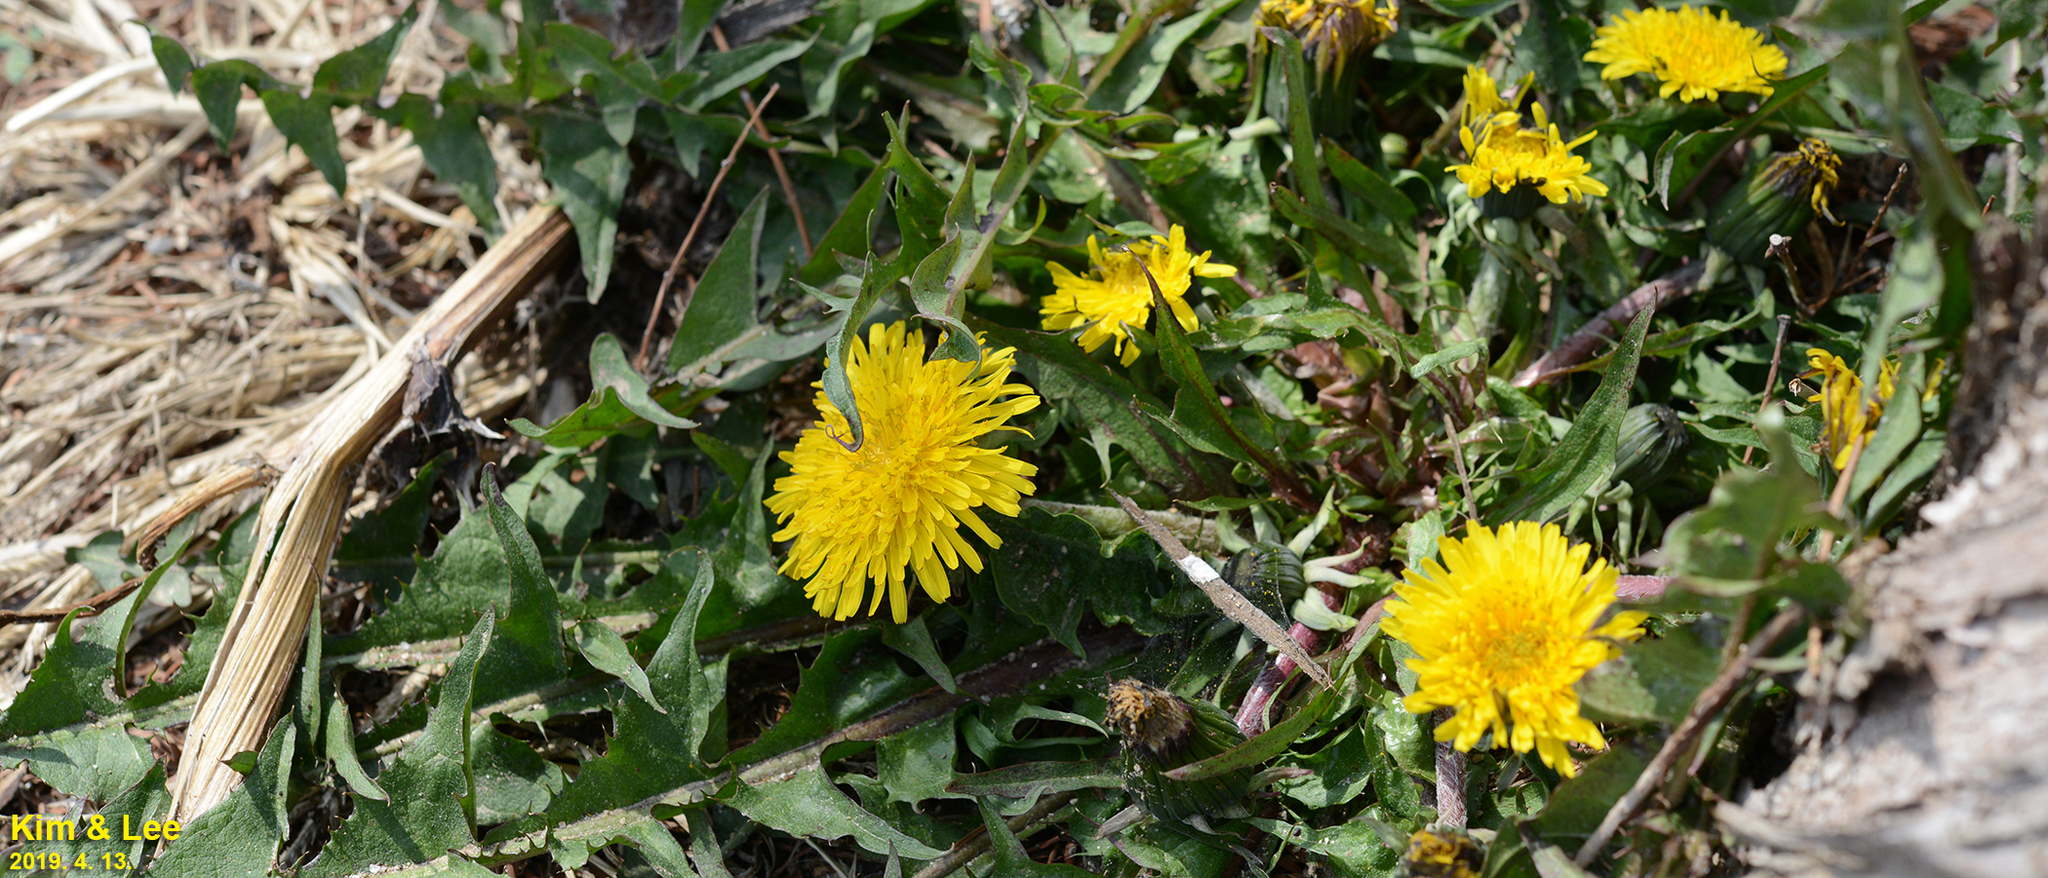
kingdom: Plantae
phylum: Tracheophyta
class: Magnoliopsida
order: Asterales
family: Asteraceae
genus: Taraxacum
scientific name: Taraxacum officinale
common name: Common dandelion
